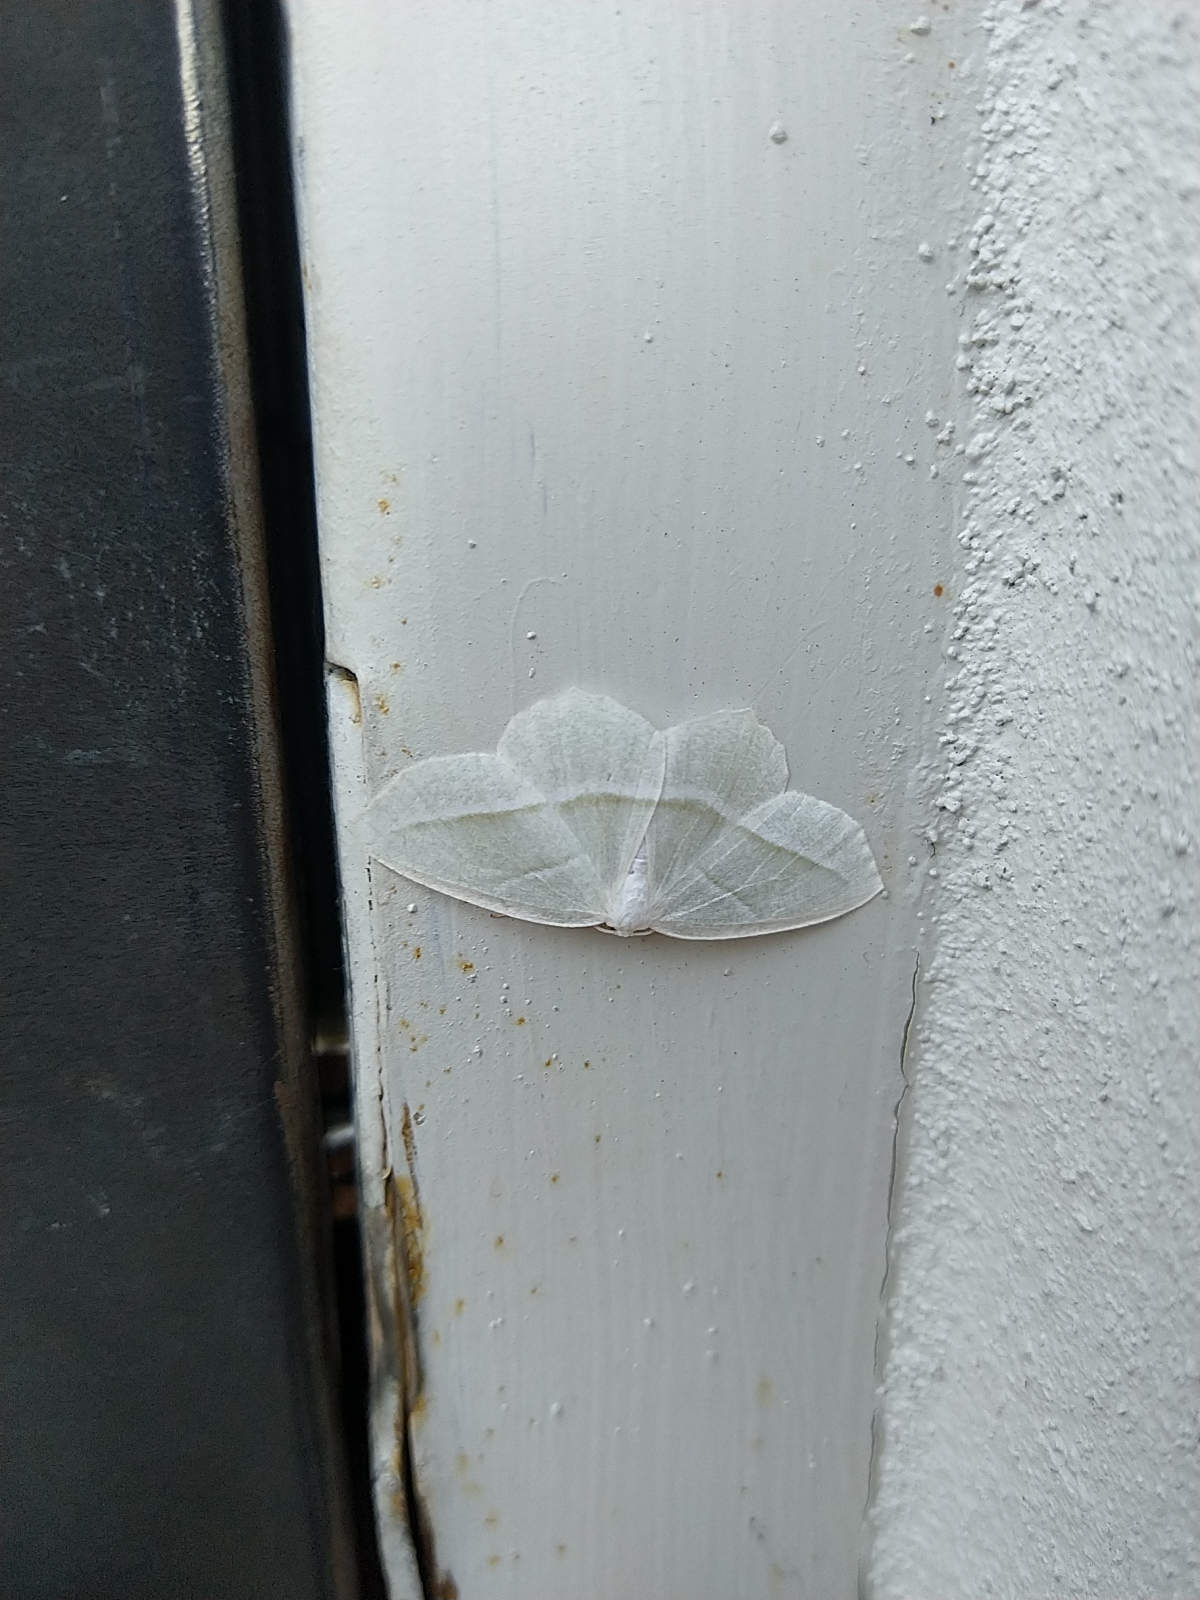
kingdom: Animalia
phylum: Arthropoda
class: Insecta
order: Lepidoptera
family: Geometridae
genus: Campaea
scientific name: Campaea perlata
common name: Fringed looper
